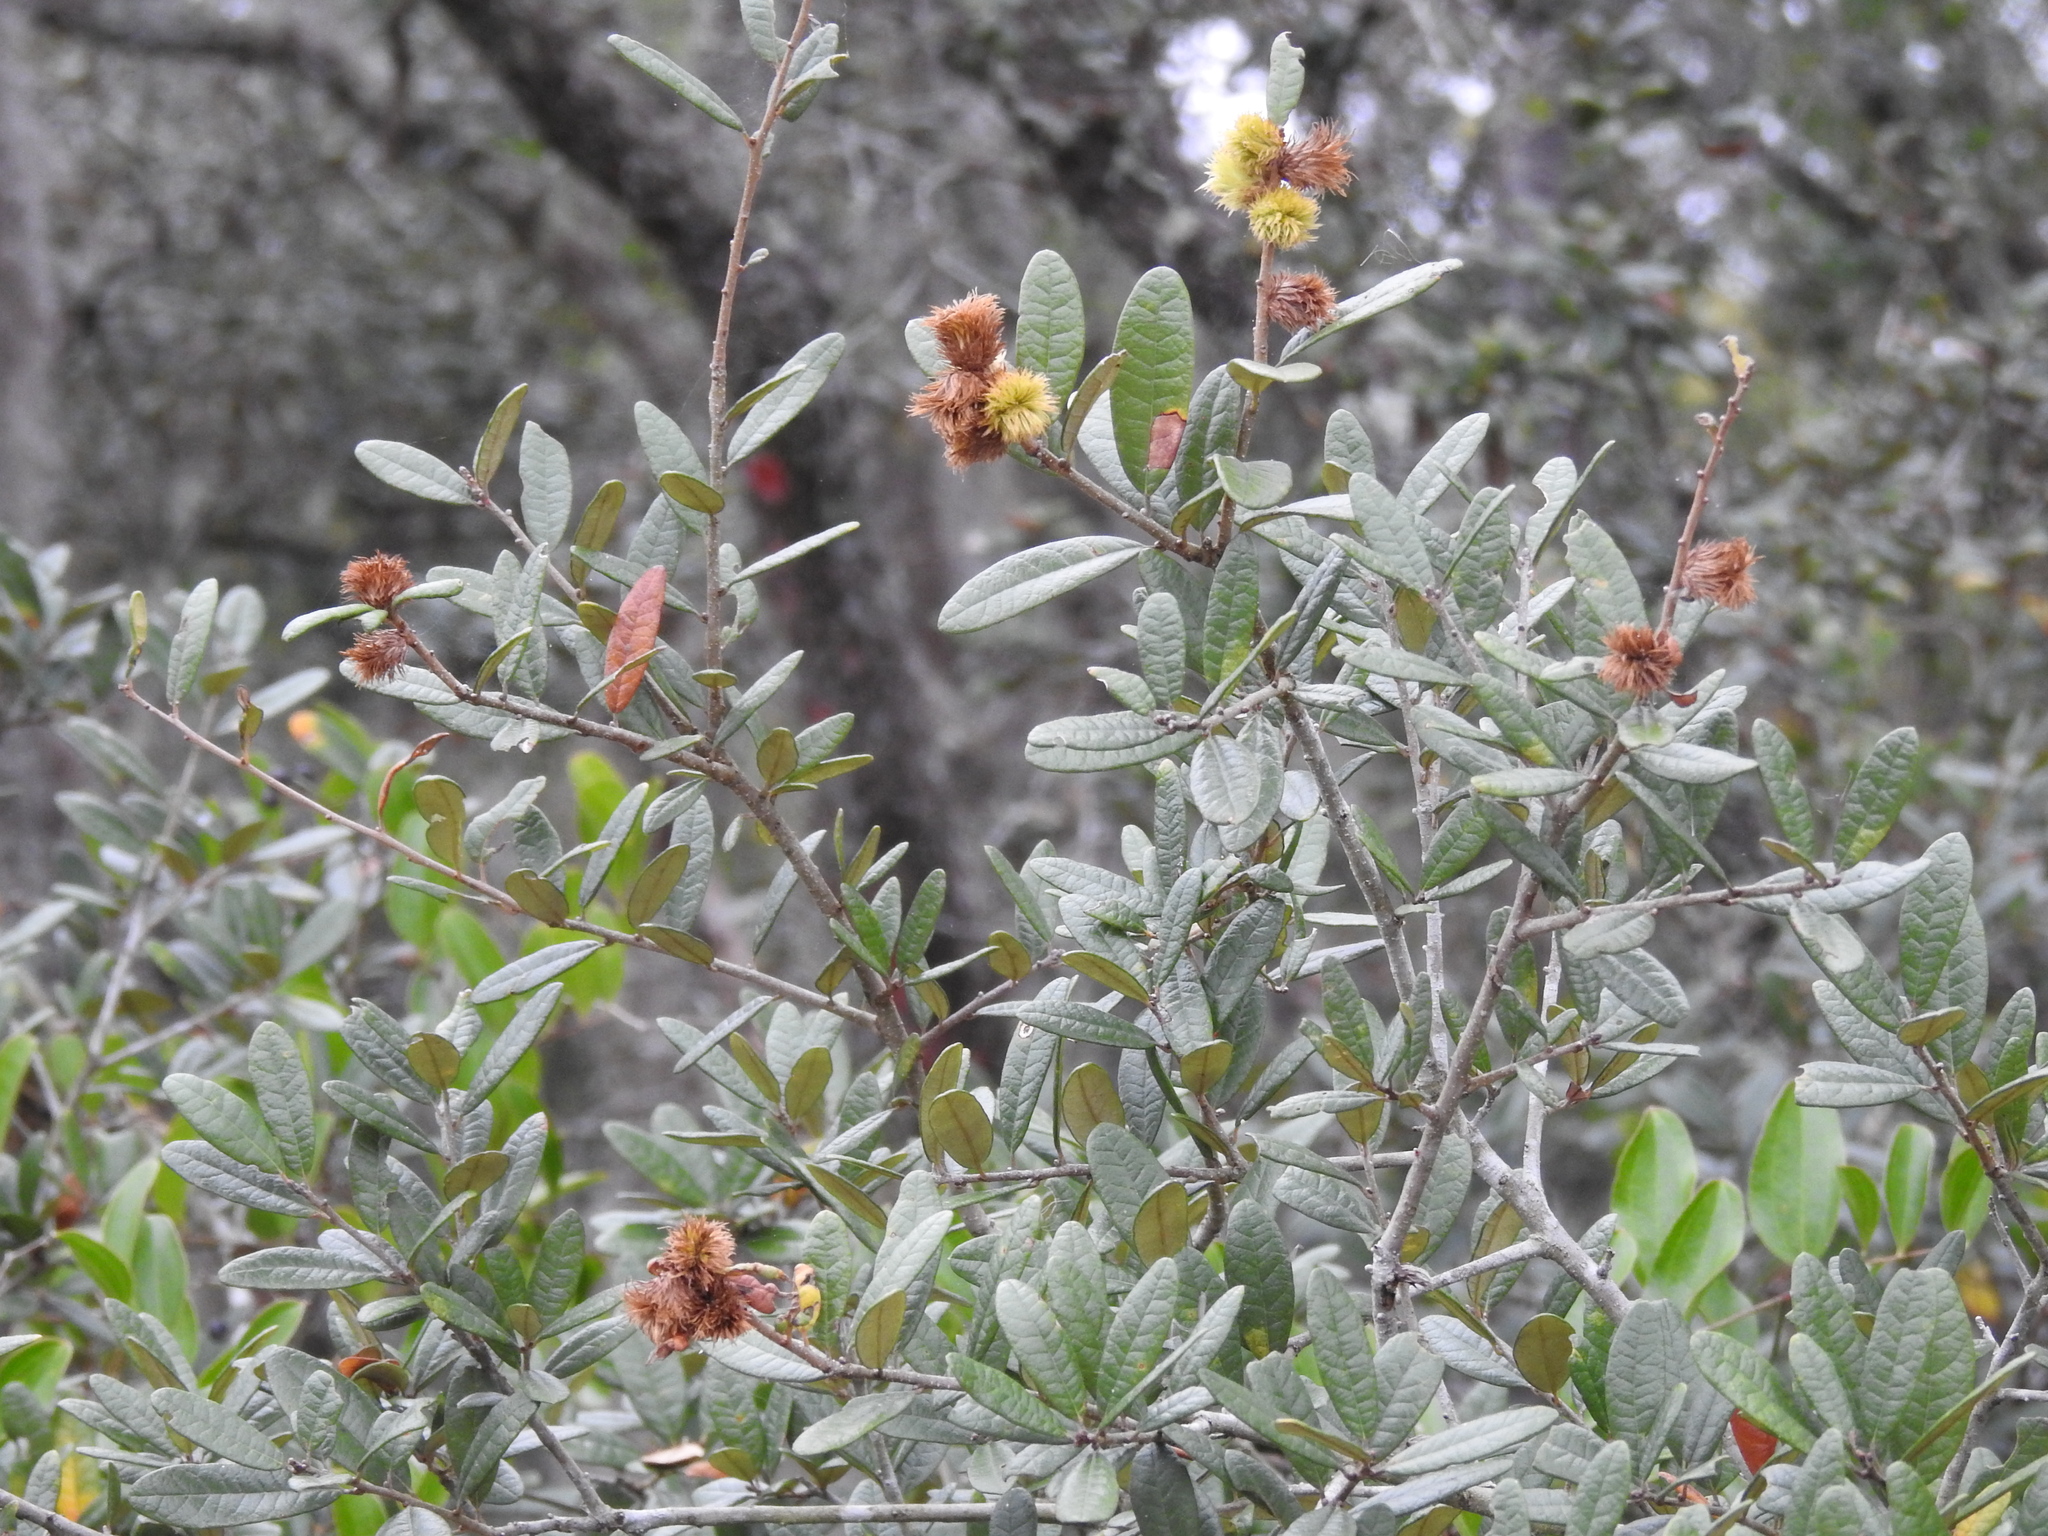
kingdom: Animalia
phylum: Arthropoda
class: Insecta
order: Hymenoptera
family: Cynipidae
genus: Andricus
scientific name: Andricus quercusfoliatus
